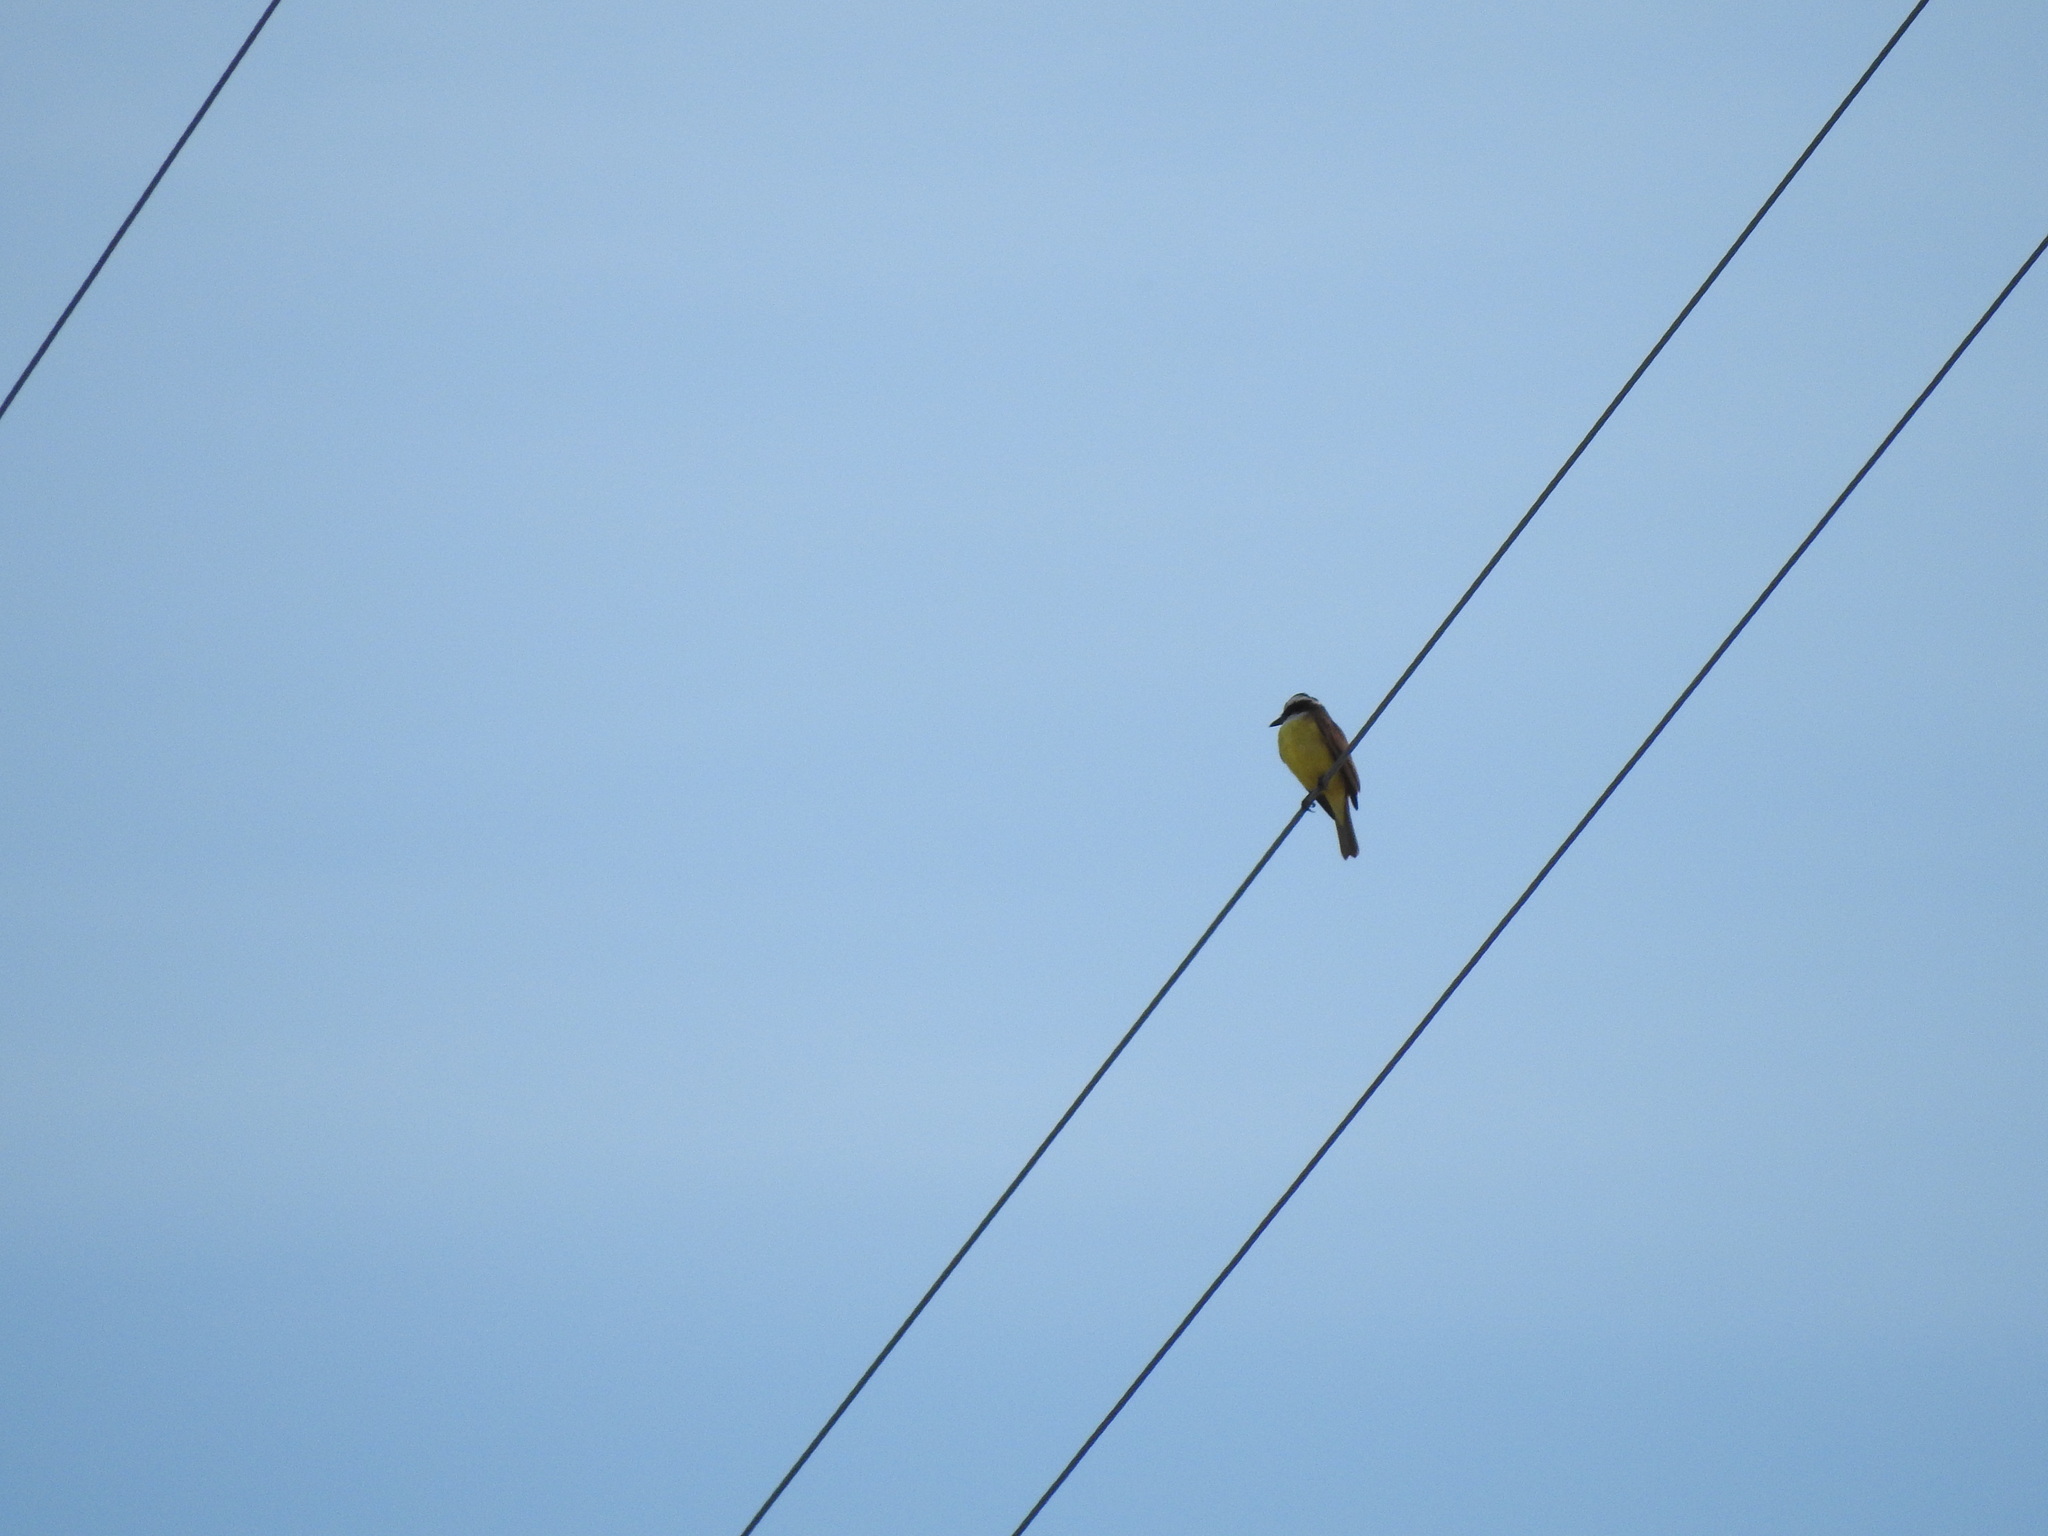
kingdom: Animalia
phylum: Chordata
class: Aves
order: Passeriformes
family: Tyrannidae
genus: Pitangus
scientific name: Pitangus sulphuratus
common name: Great kiskadee
